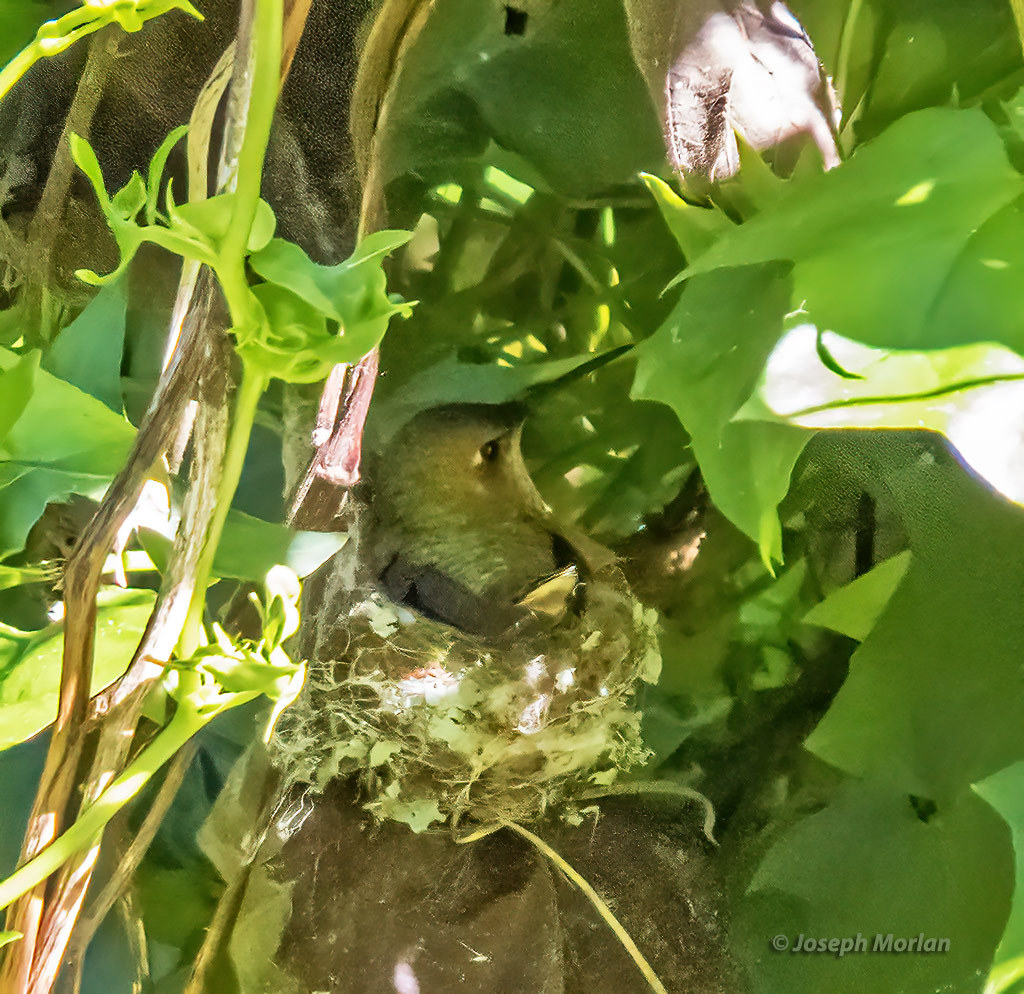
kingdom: Animalia
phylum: Chordata
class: Aves
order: Apodiformes
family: Trochilidae
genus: Selasphorus
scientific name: Selasphorus sasin
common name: Allen's hummingbird
